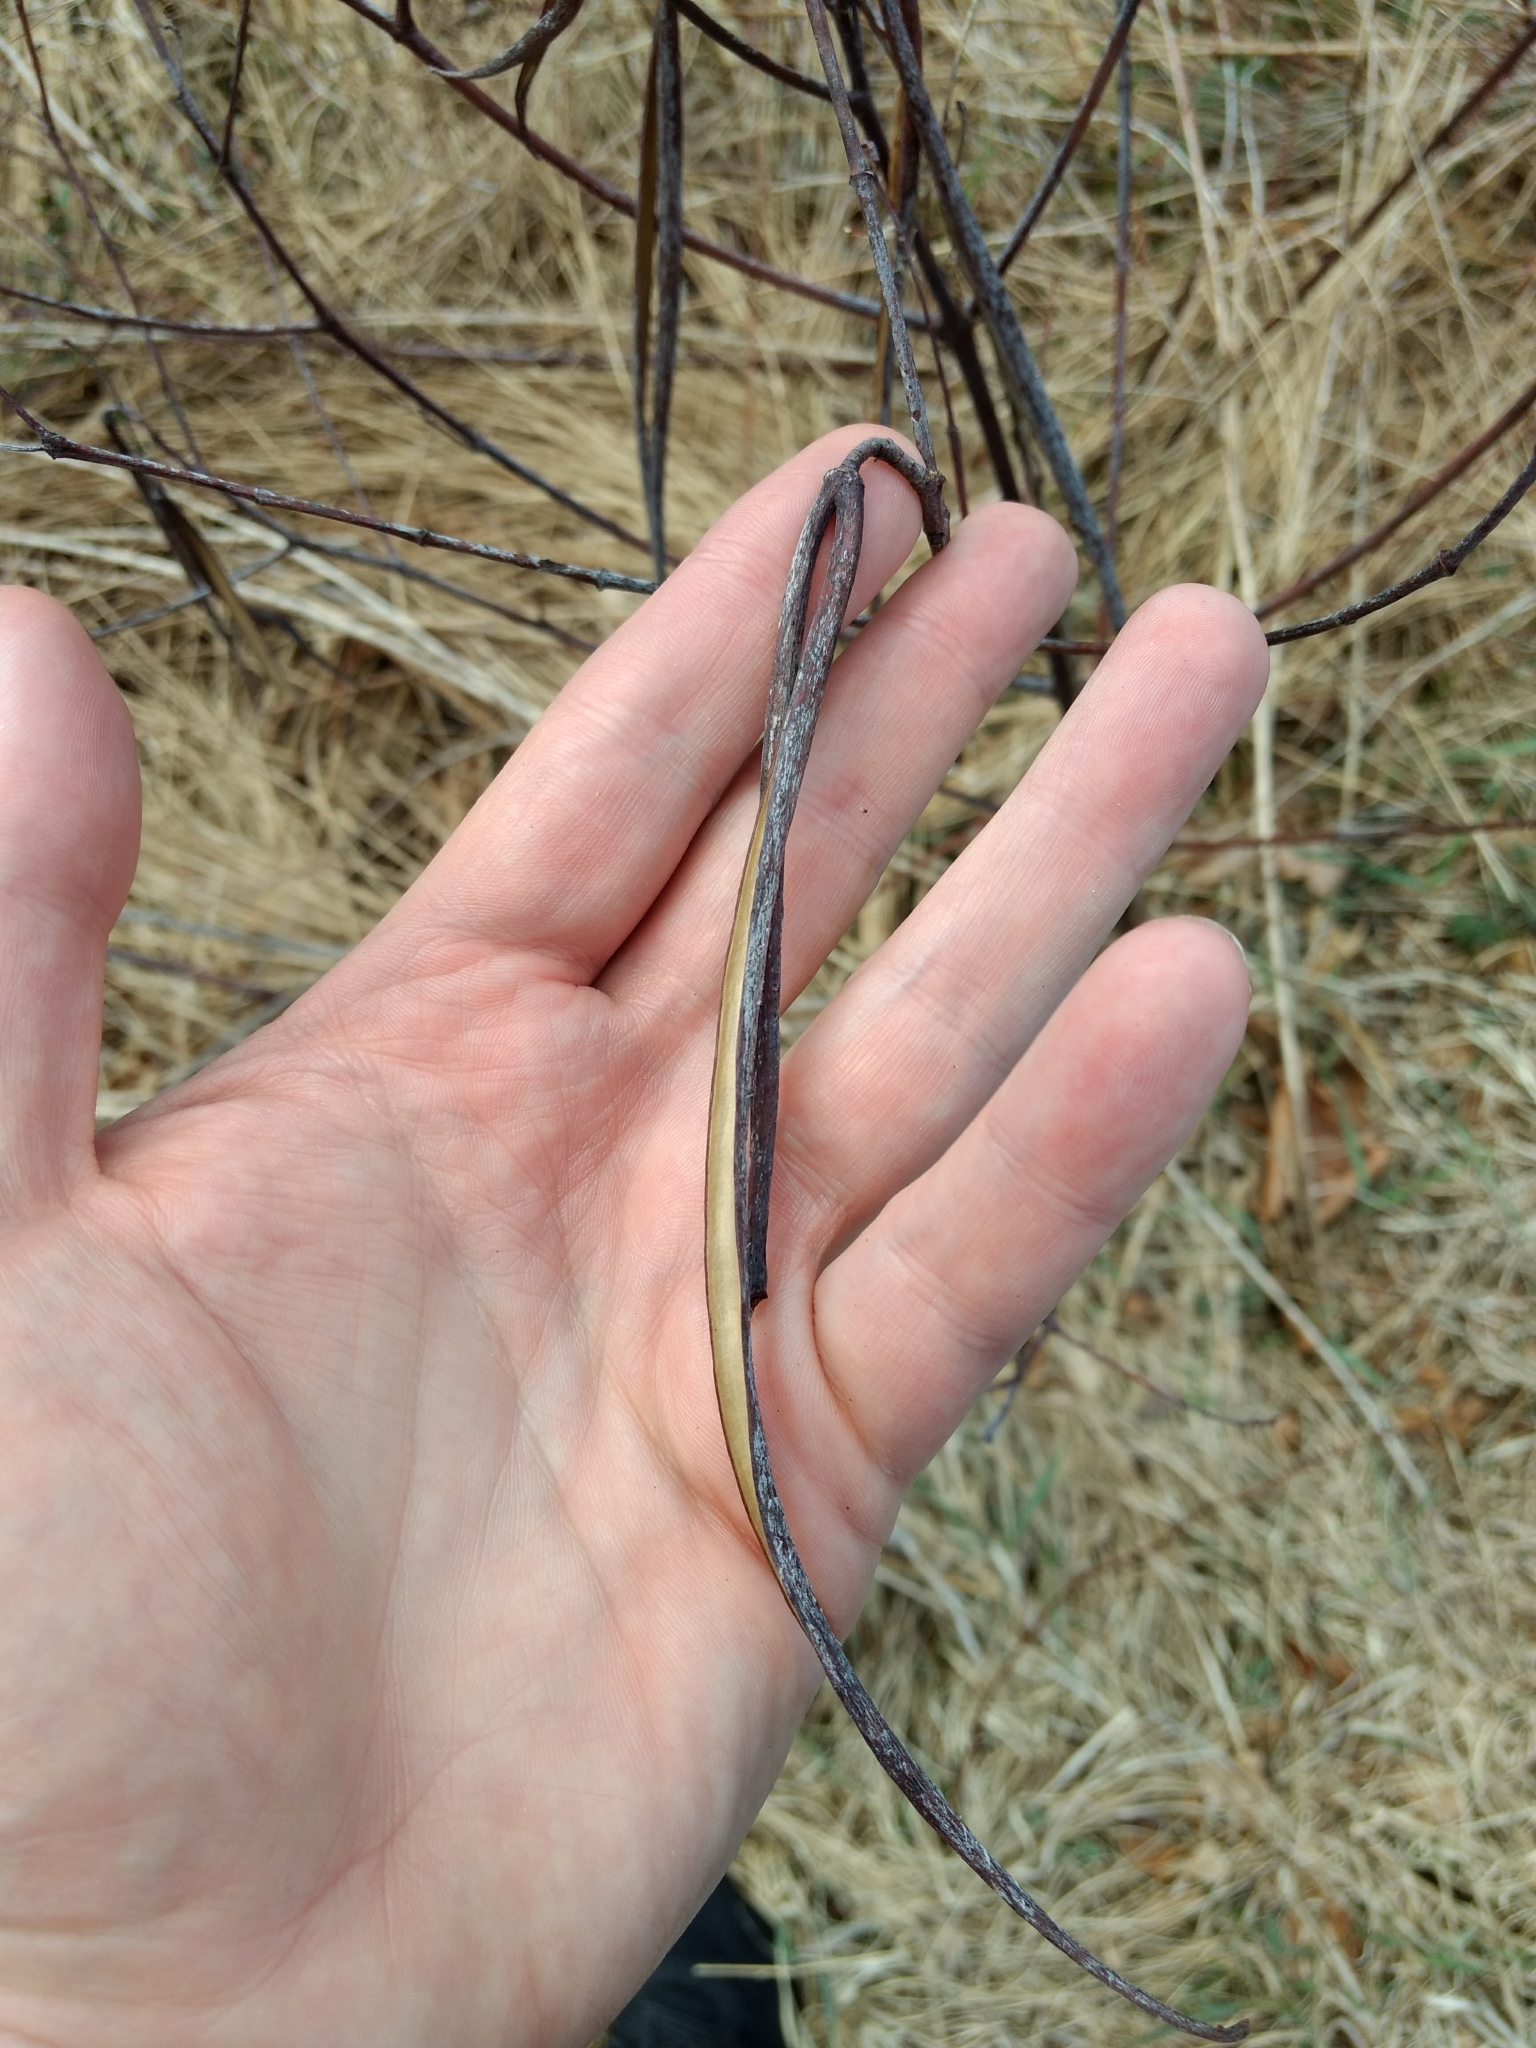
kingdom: Plantae
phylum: Tracheophyta
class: Magnoliopsida
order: Gentianales
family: Apocynaceae
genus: Apocynum
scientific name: Apocynum cannabinum
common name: Hemp dogbane
